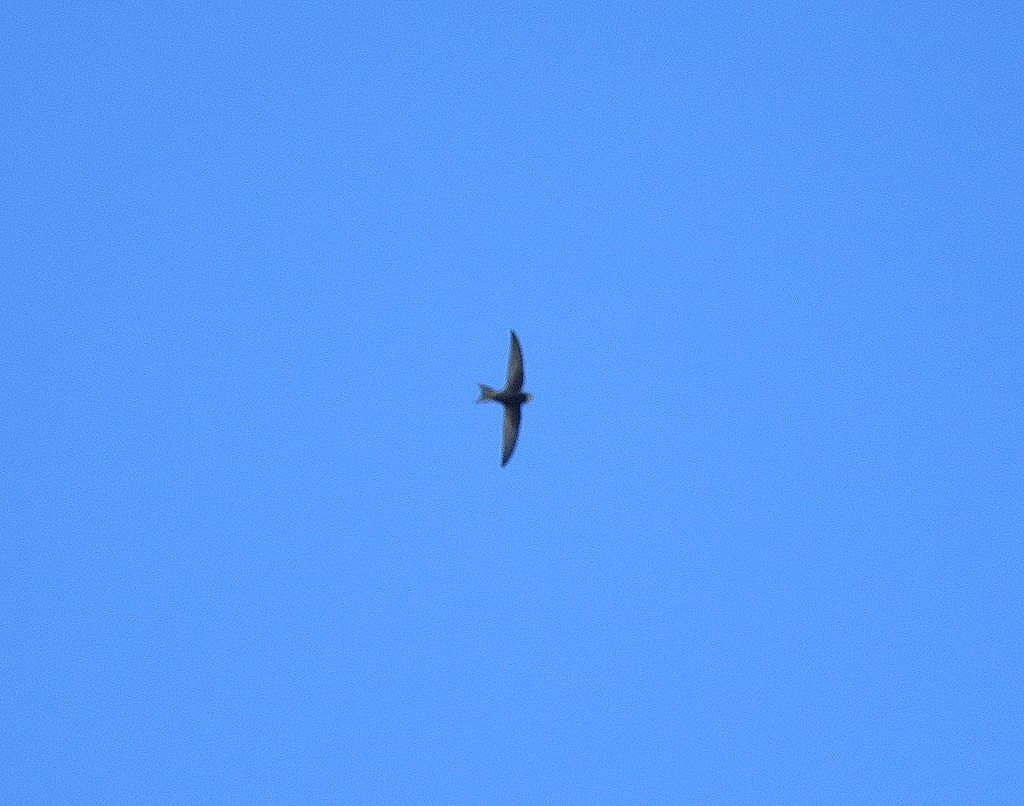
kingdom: Animalia
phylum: Chordata
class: Aves
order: Apodiformes
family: Apodidae
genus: Apus
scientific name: Apus apus
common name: Common swift
